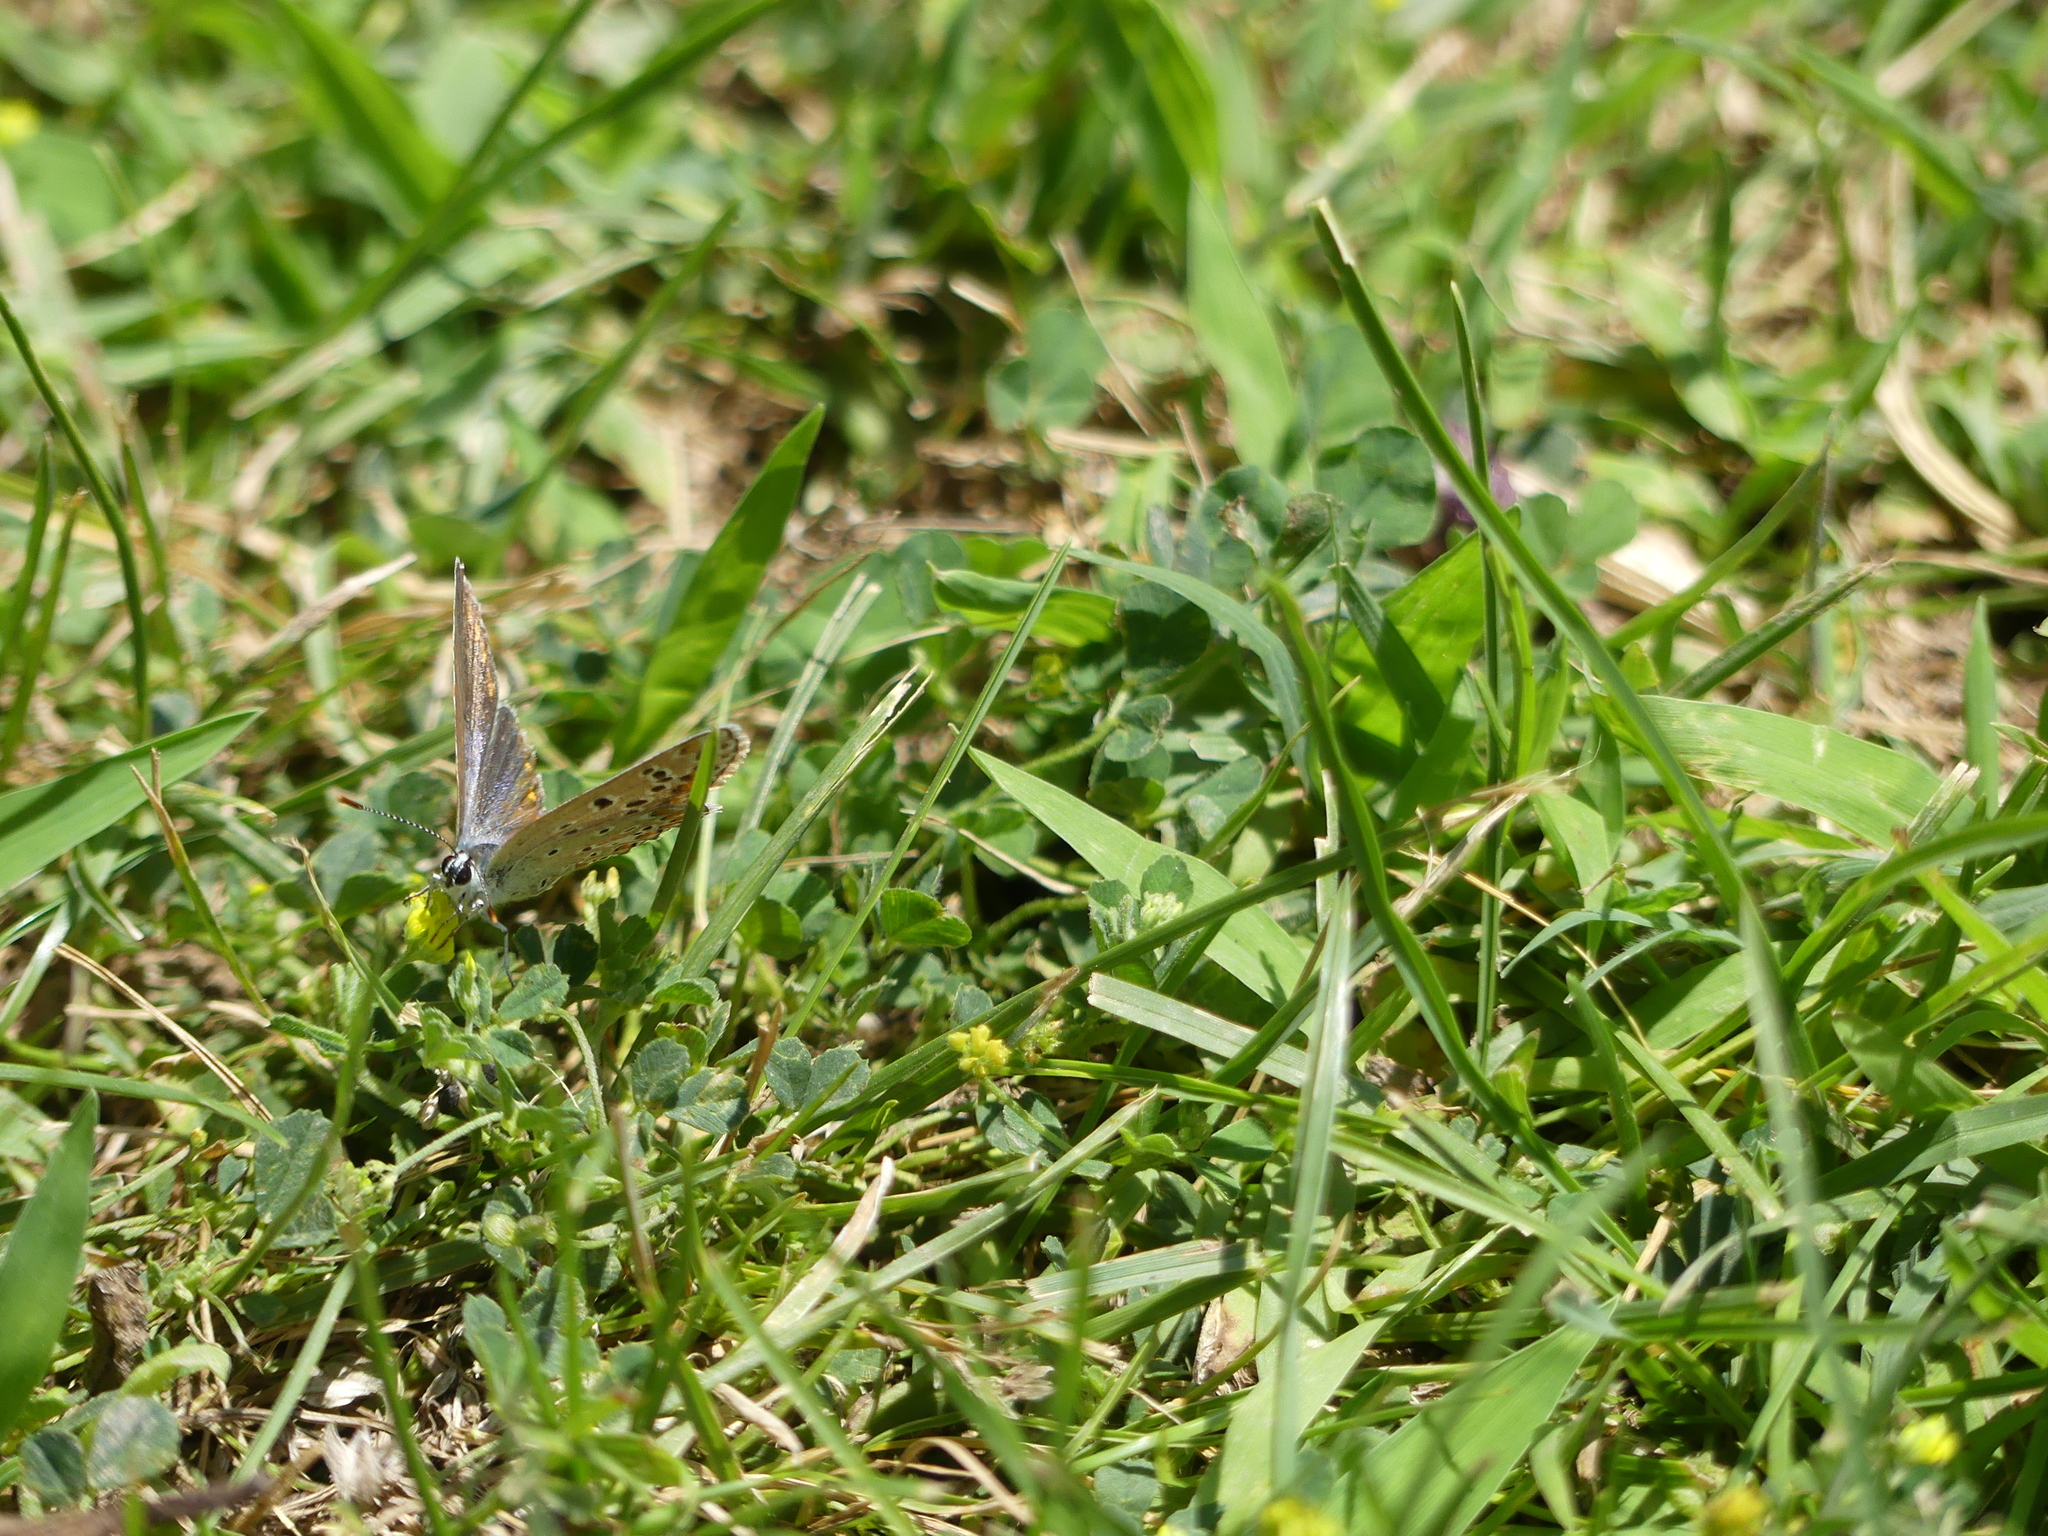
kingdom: Animalia
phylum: Arthropoda
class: Insecta
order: Lepidoptera
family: Lycaenidae
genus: Polyommatus
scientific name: Polyommatus icarus
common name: Common blue
